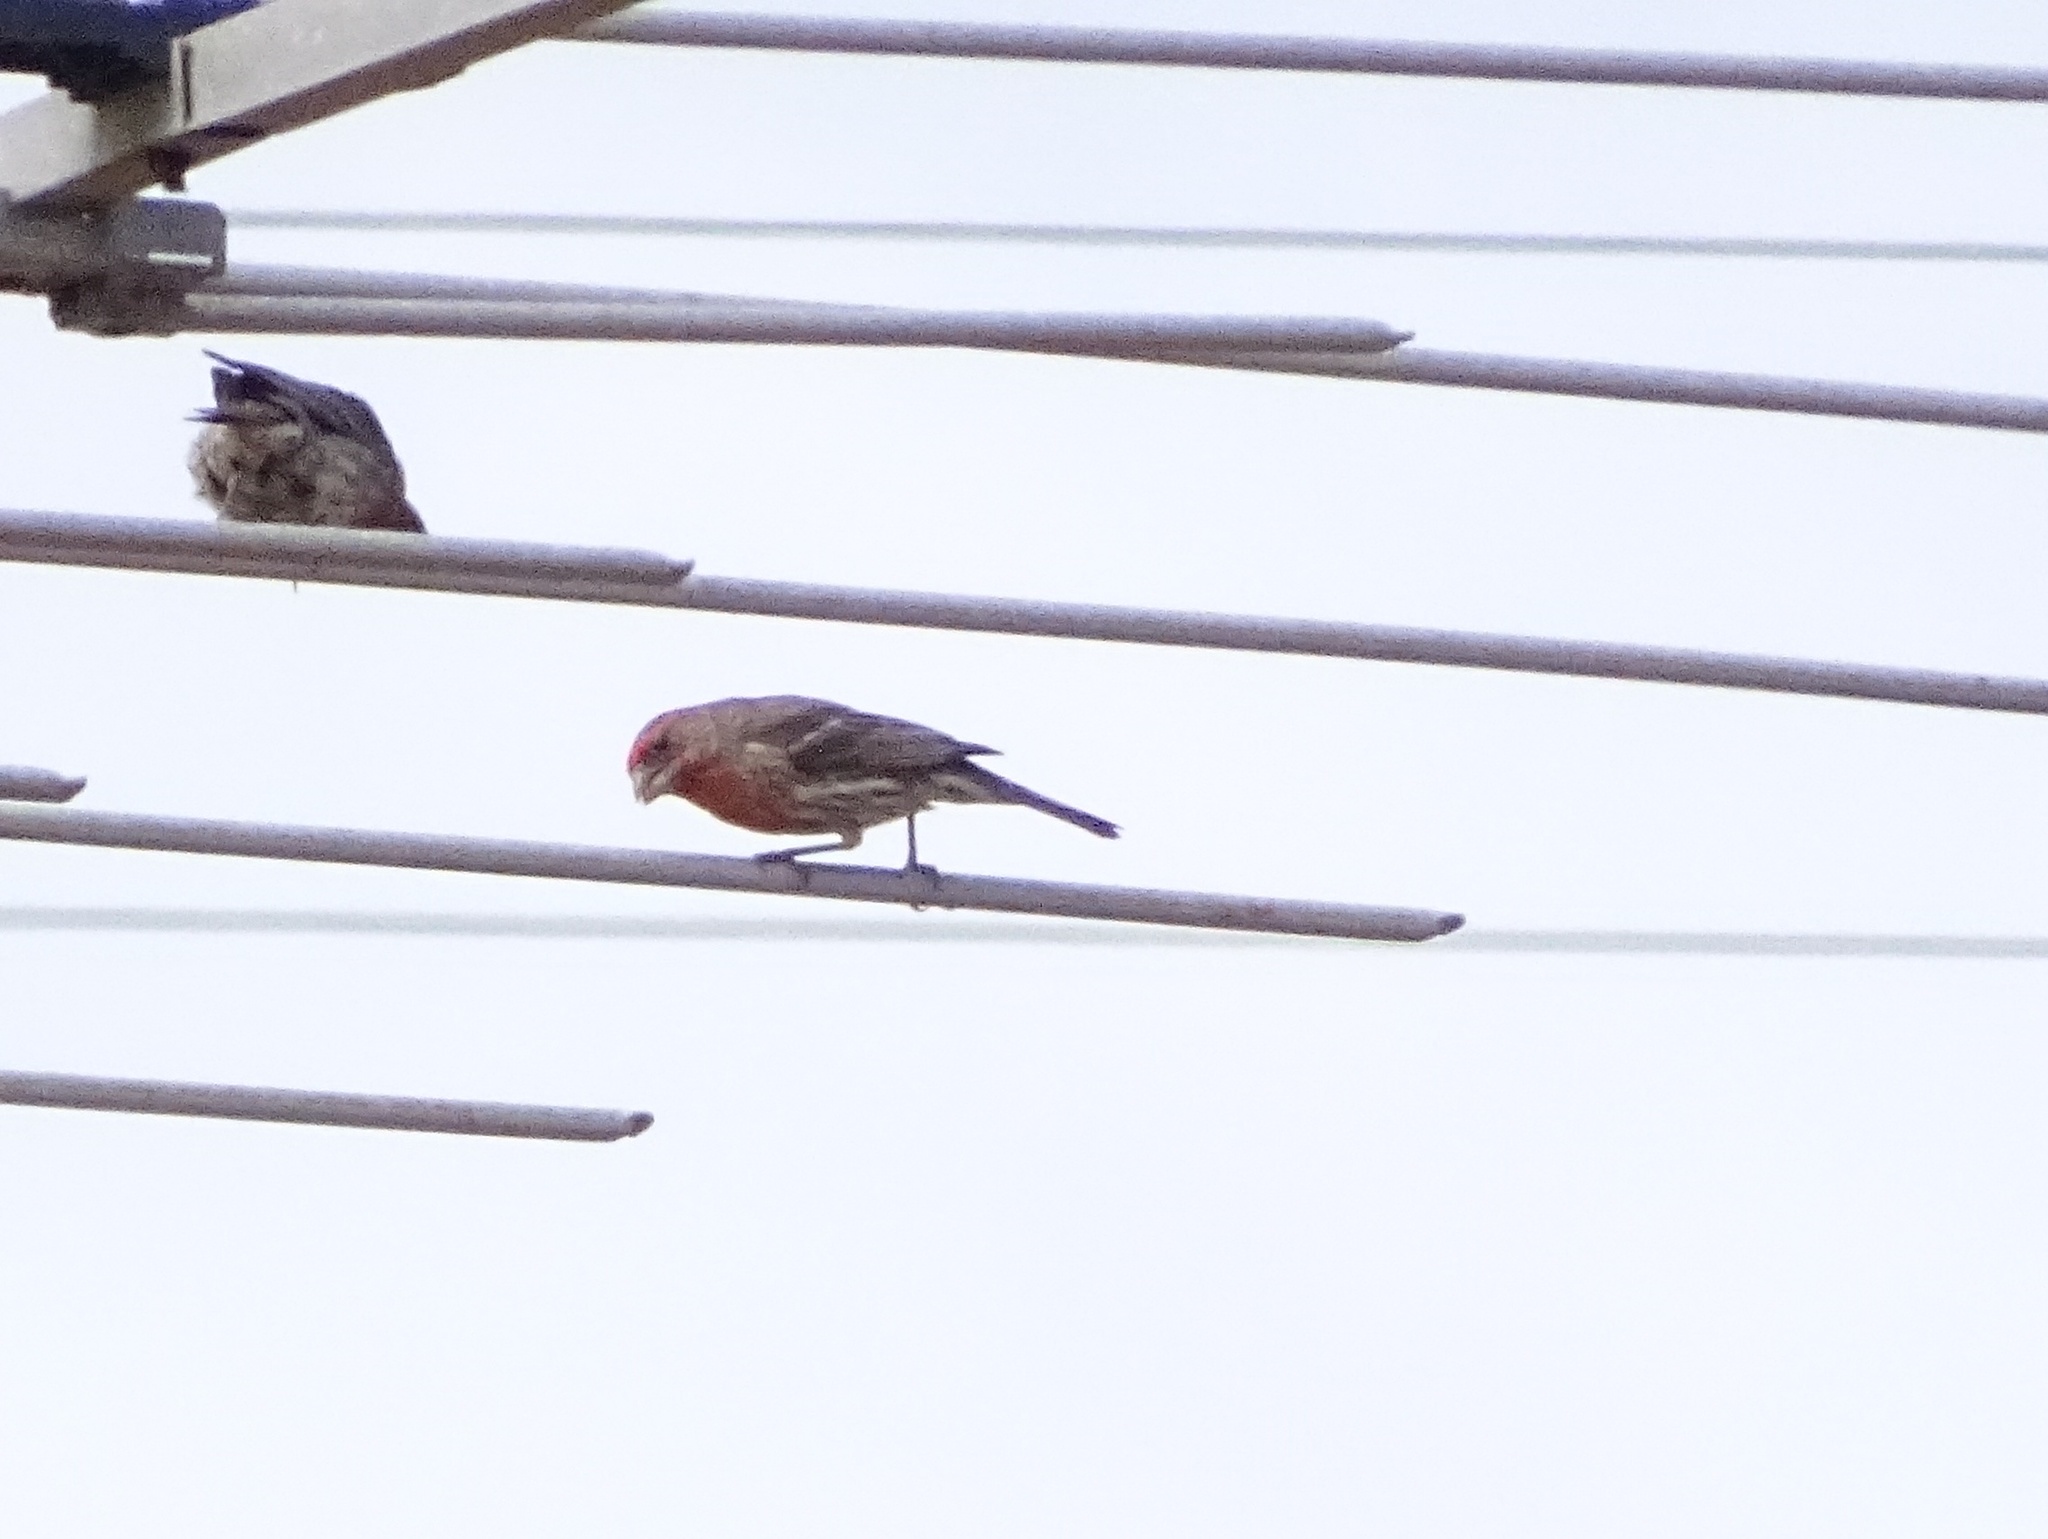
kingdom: Animalia
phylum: Chordata
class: Aves
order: Passeriformes
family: Fringillidae
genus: Haemorhous
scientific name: Haemorhous mexicanus
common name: House finch
